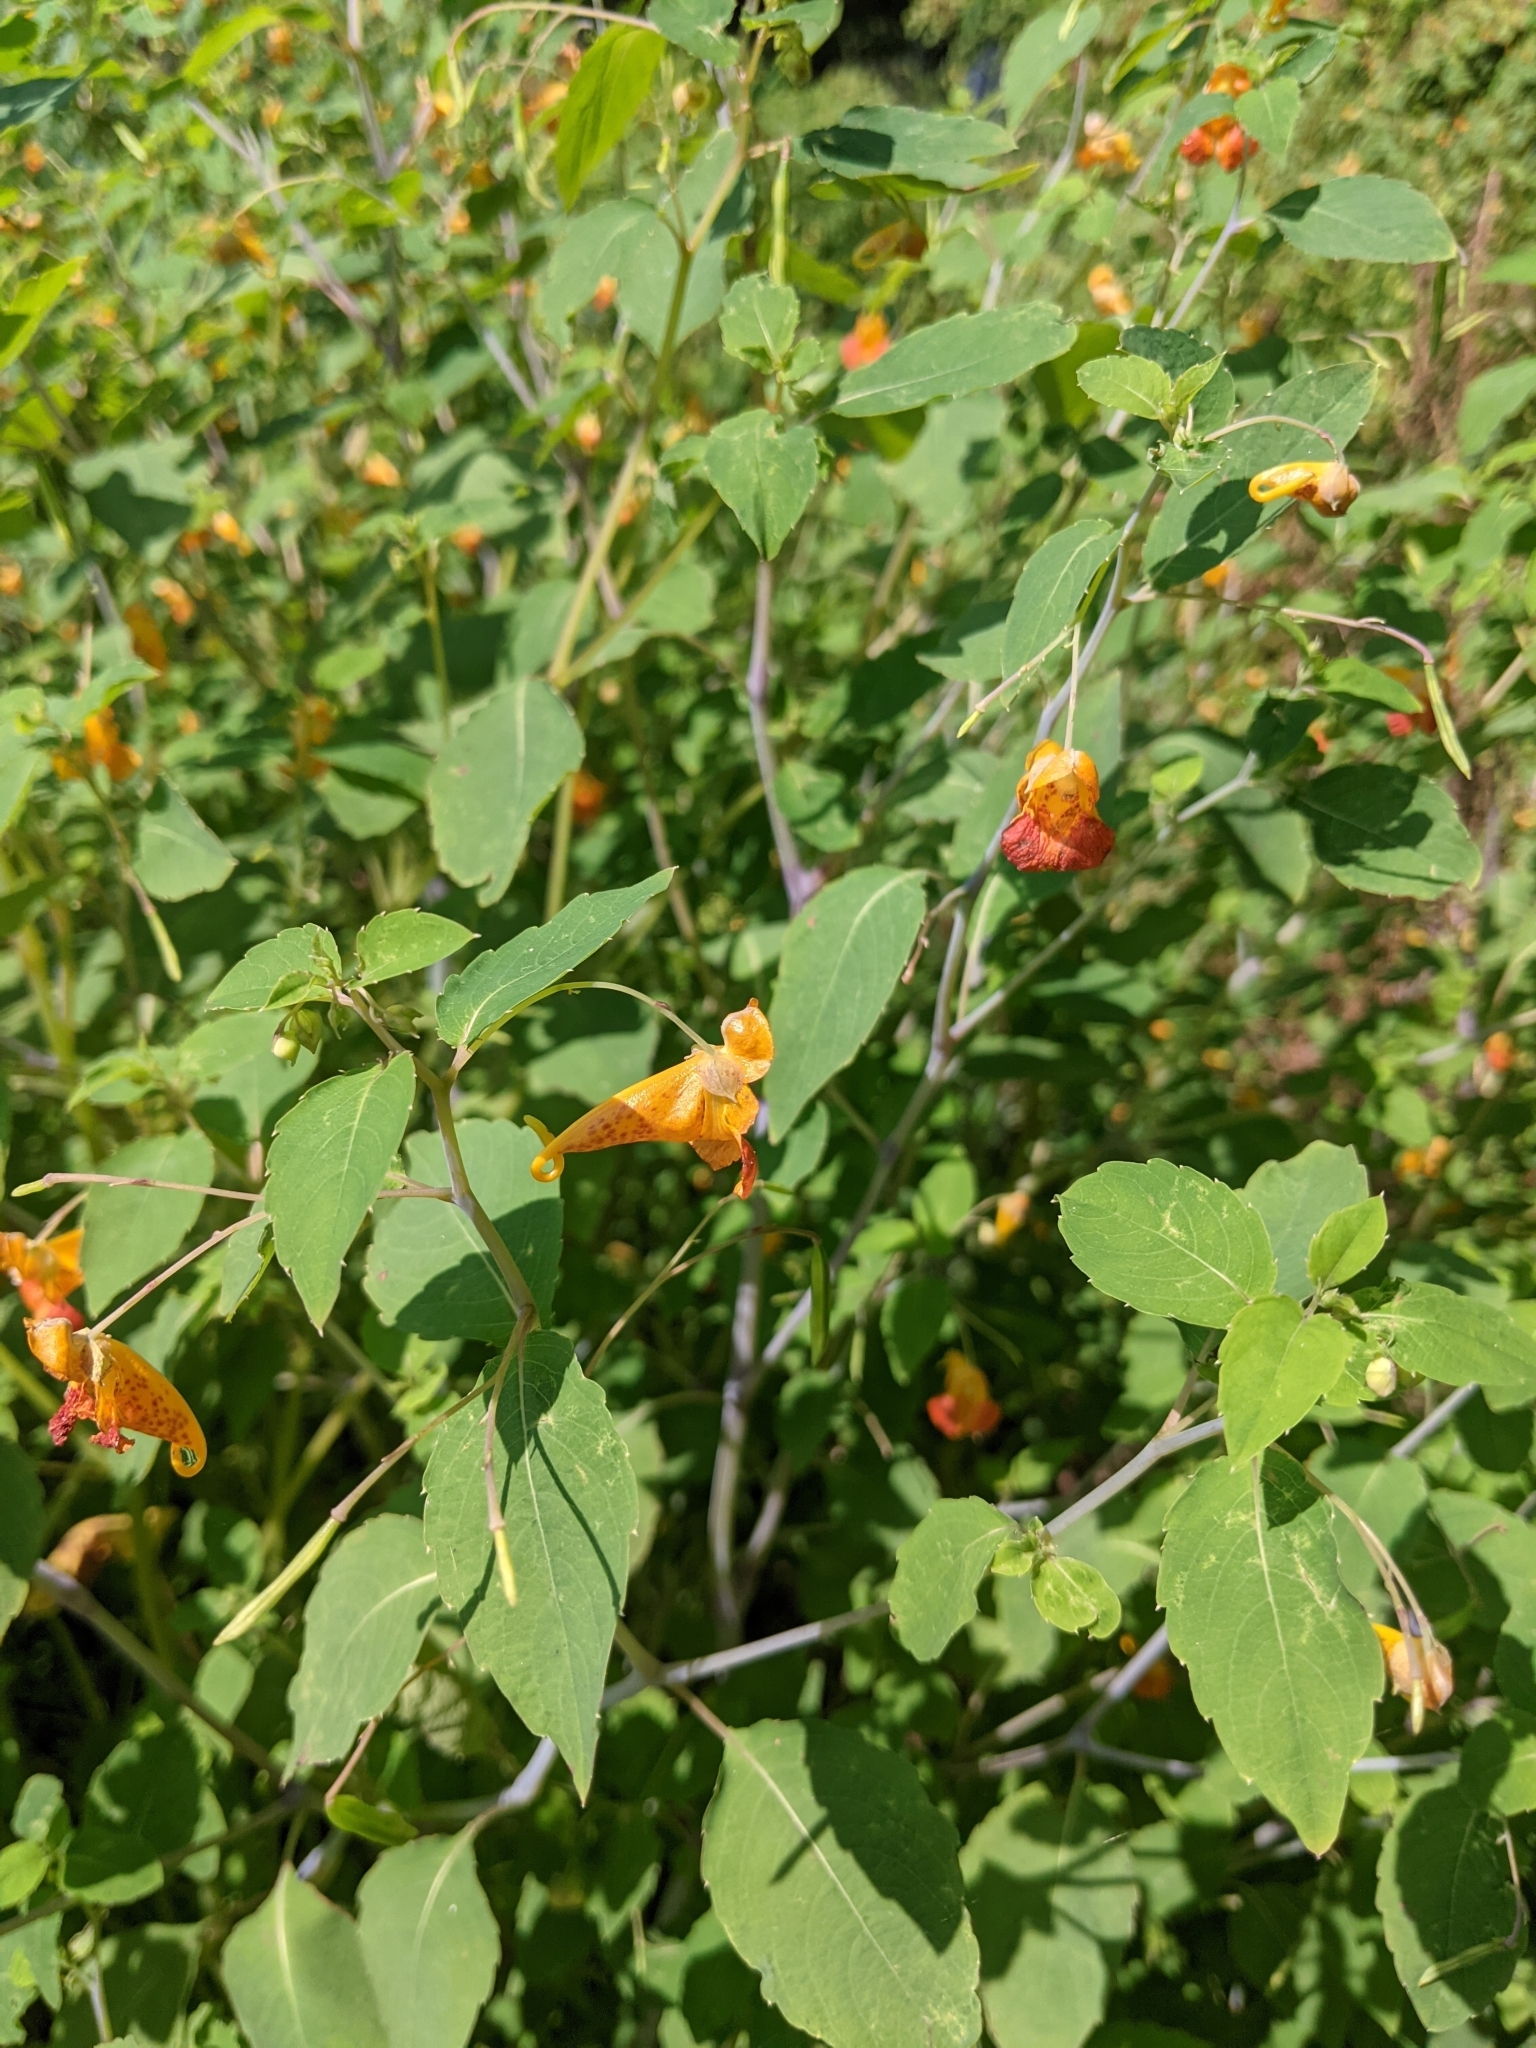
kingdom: Plantae
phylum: Tracheophyta
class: Magnoliopsida
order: Ericales
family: Balsaminaceae
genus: Impatiens
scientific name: Impatiens capensis
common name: Orange balsam
